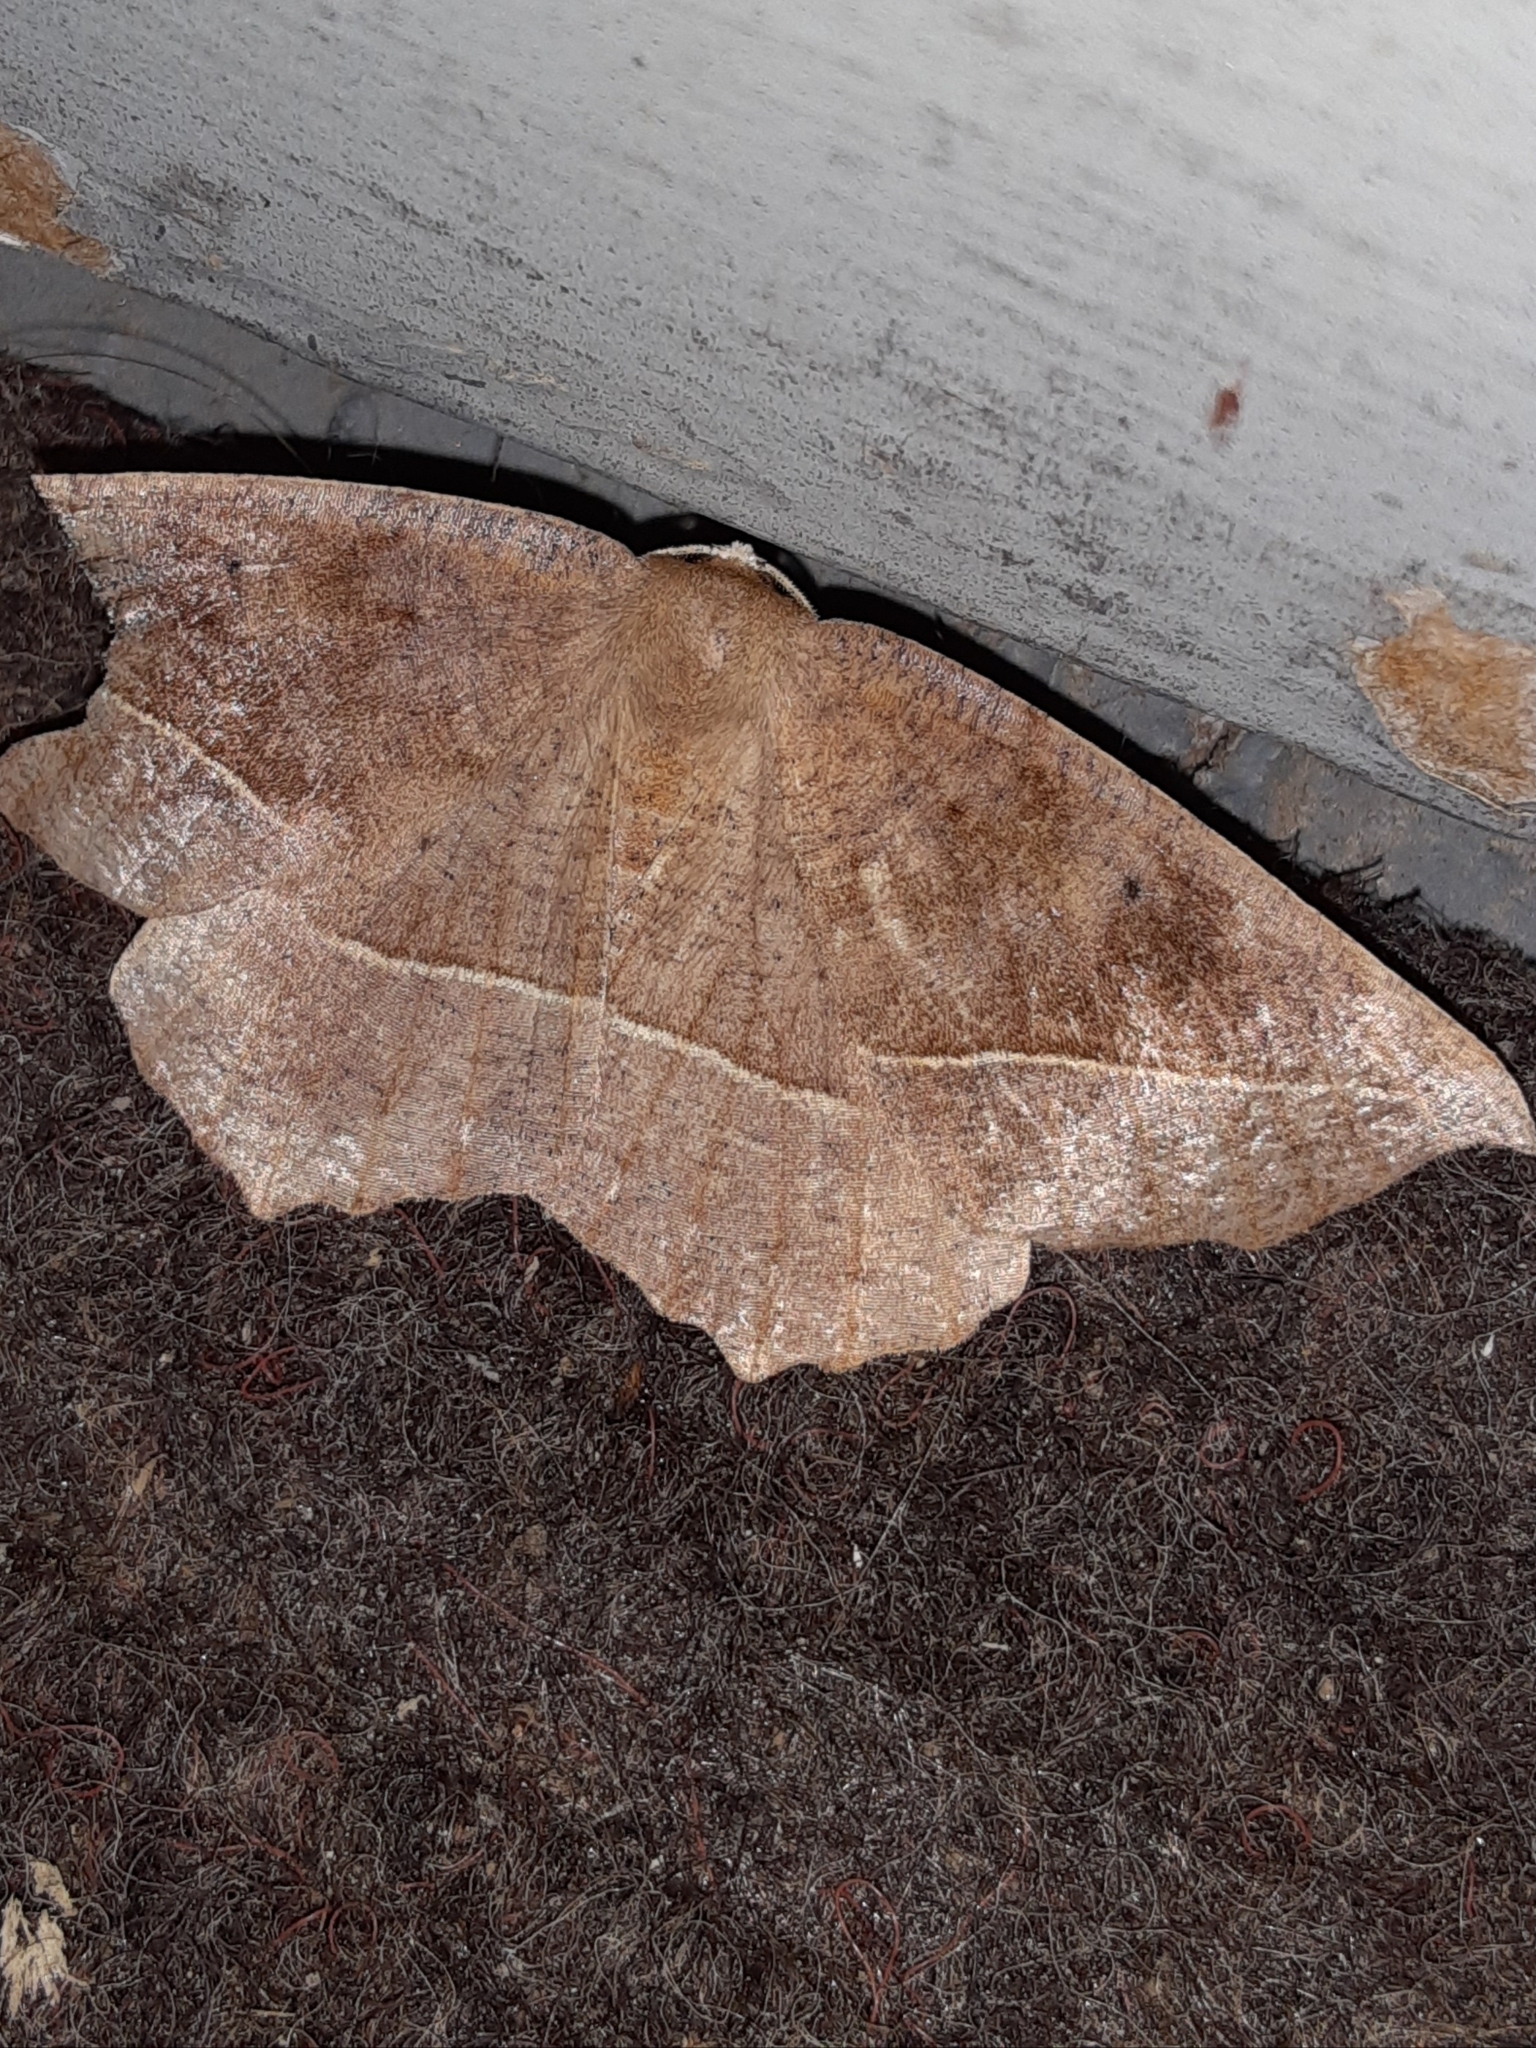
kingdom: Animalia
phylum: Arthropoda
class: Insecta
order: Lepidoptera
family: Geometridae
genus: Eutrapela
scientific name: Eutrapela clemataria
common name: Curved-toothed geometer
